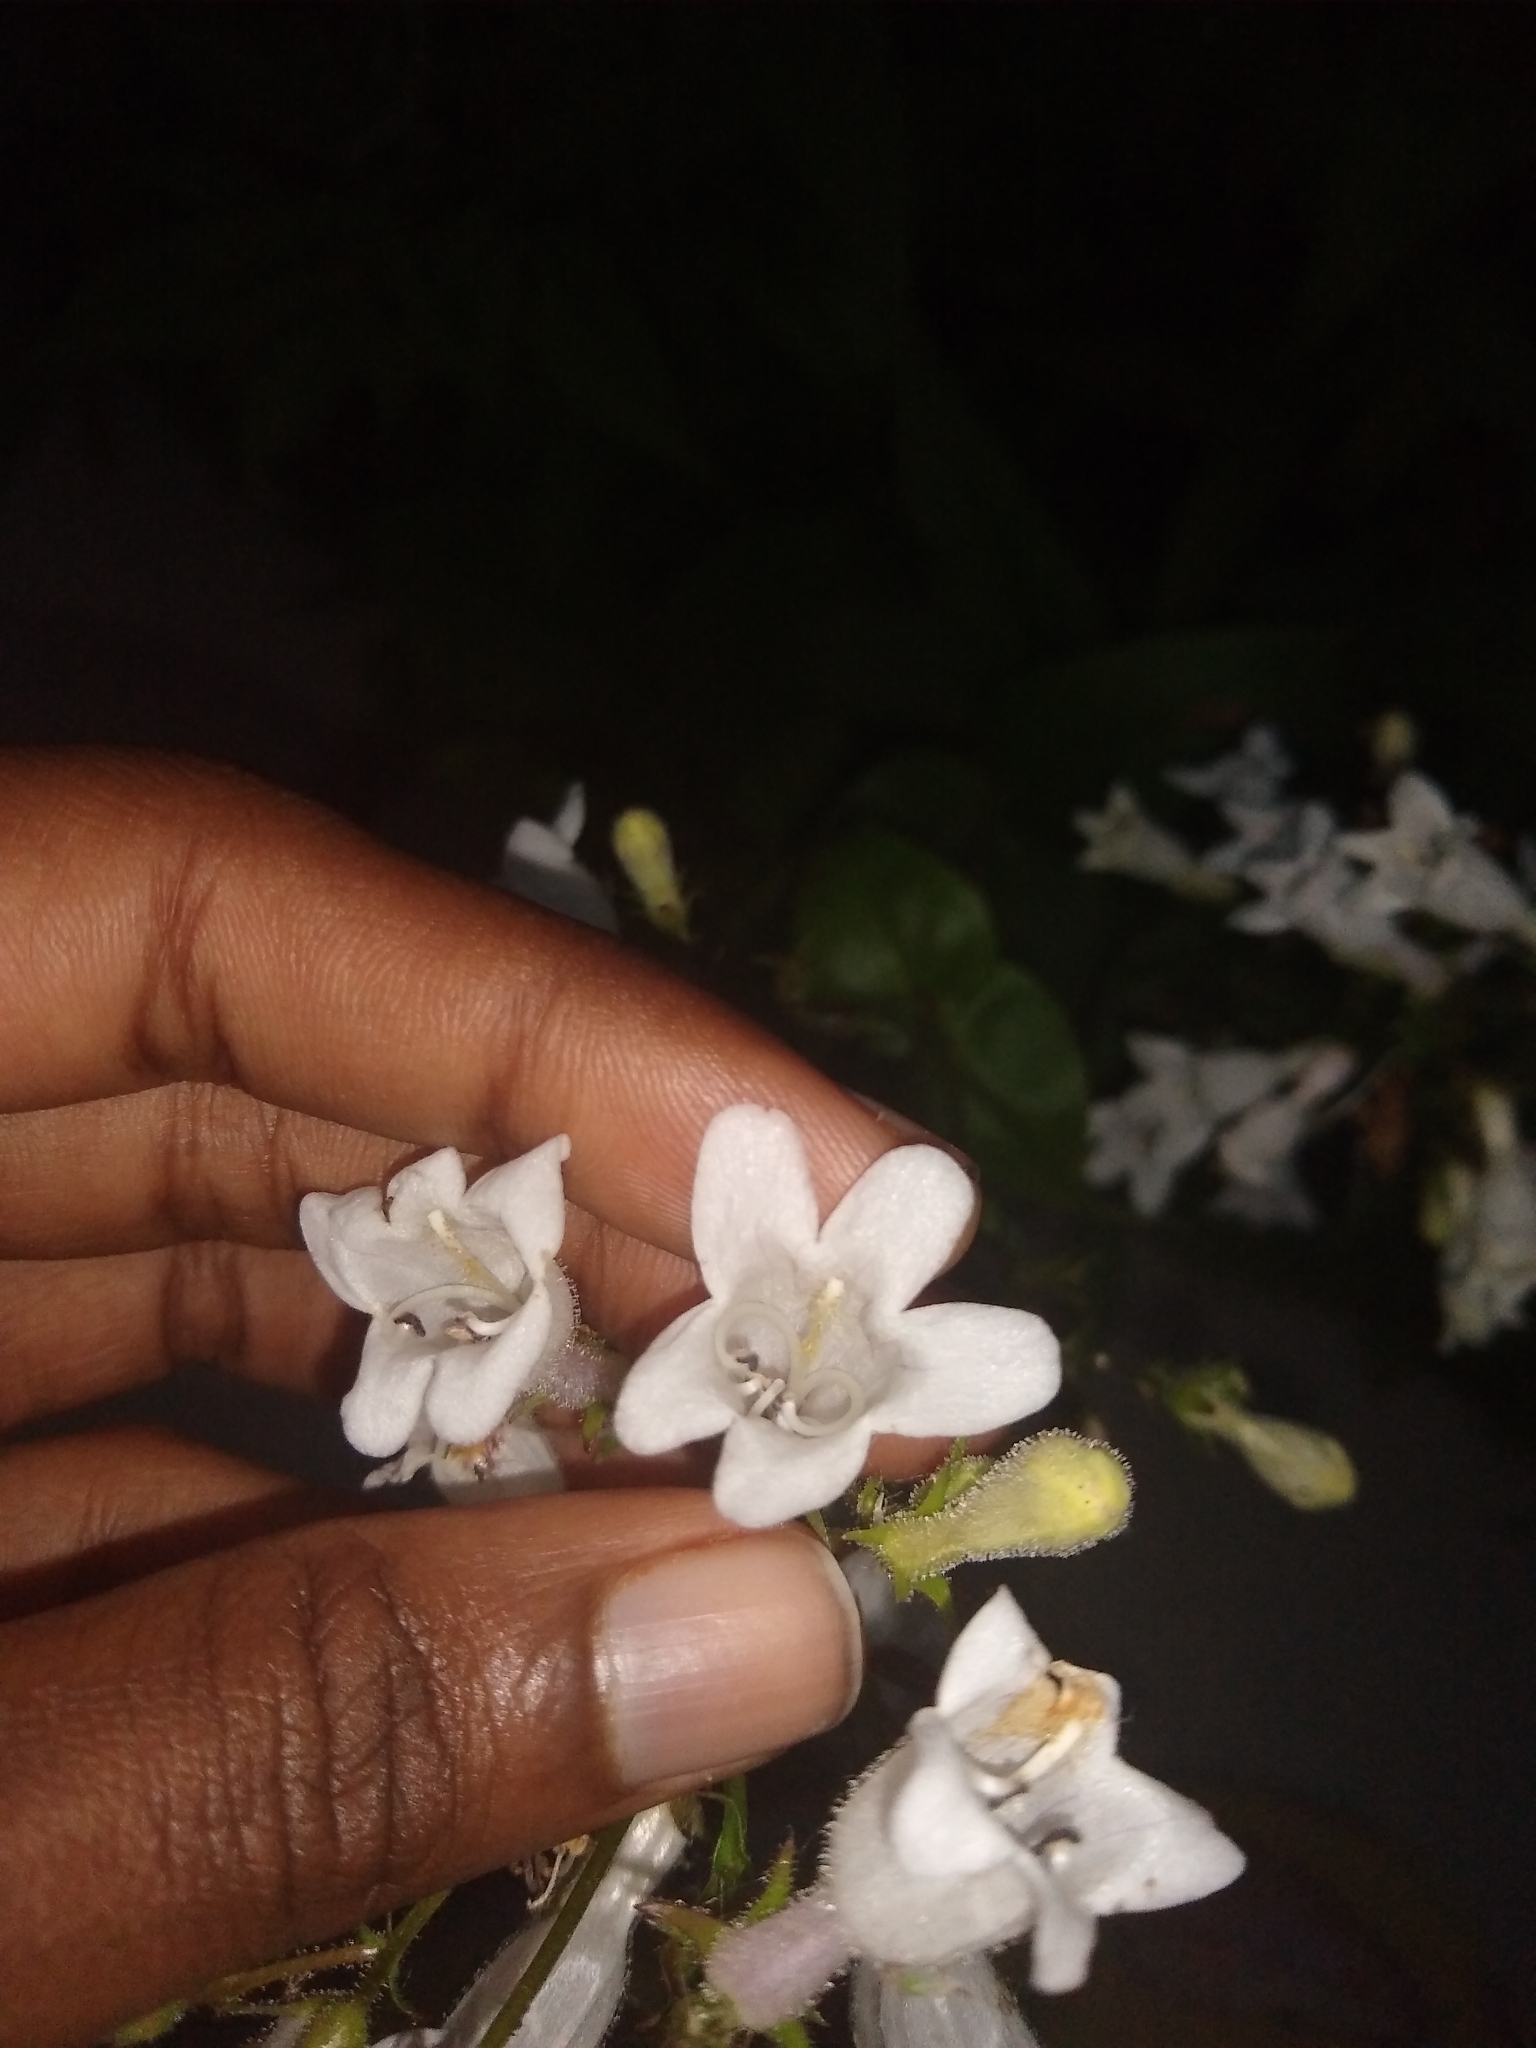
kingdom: Plantae
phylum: Tracheophyta
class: Magnoliopsida
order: Lamiales
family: Plantaginaceae
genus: Penstemon
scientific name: Penstemon digitalis
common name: Foxglove beardtongue
